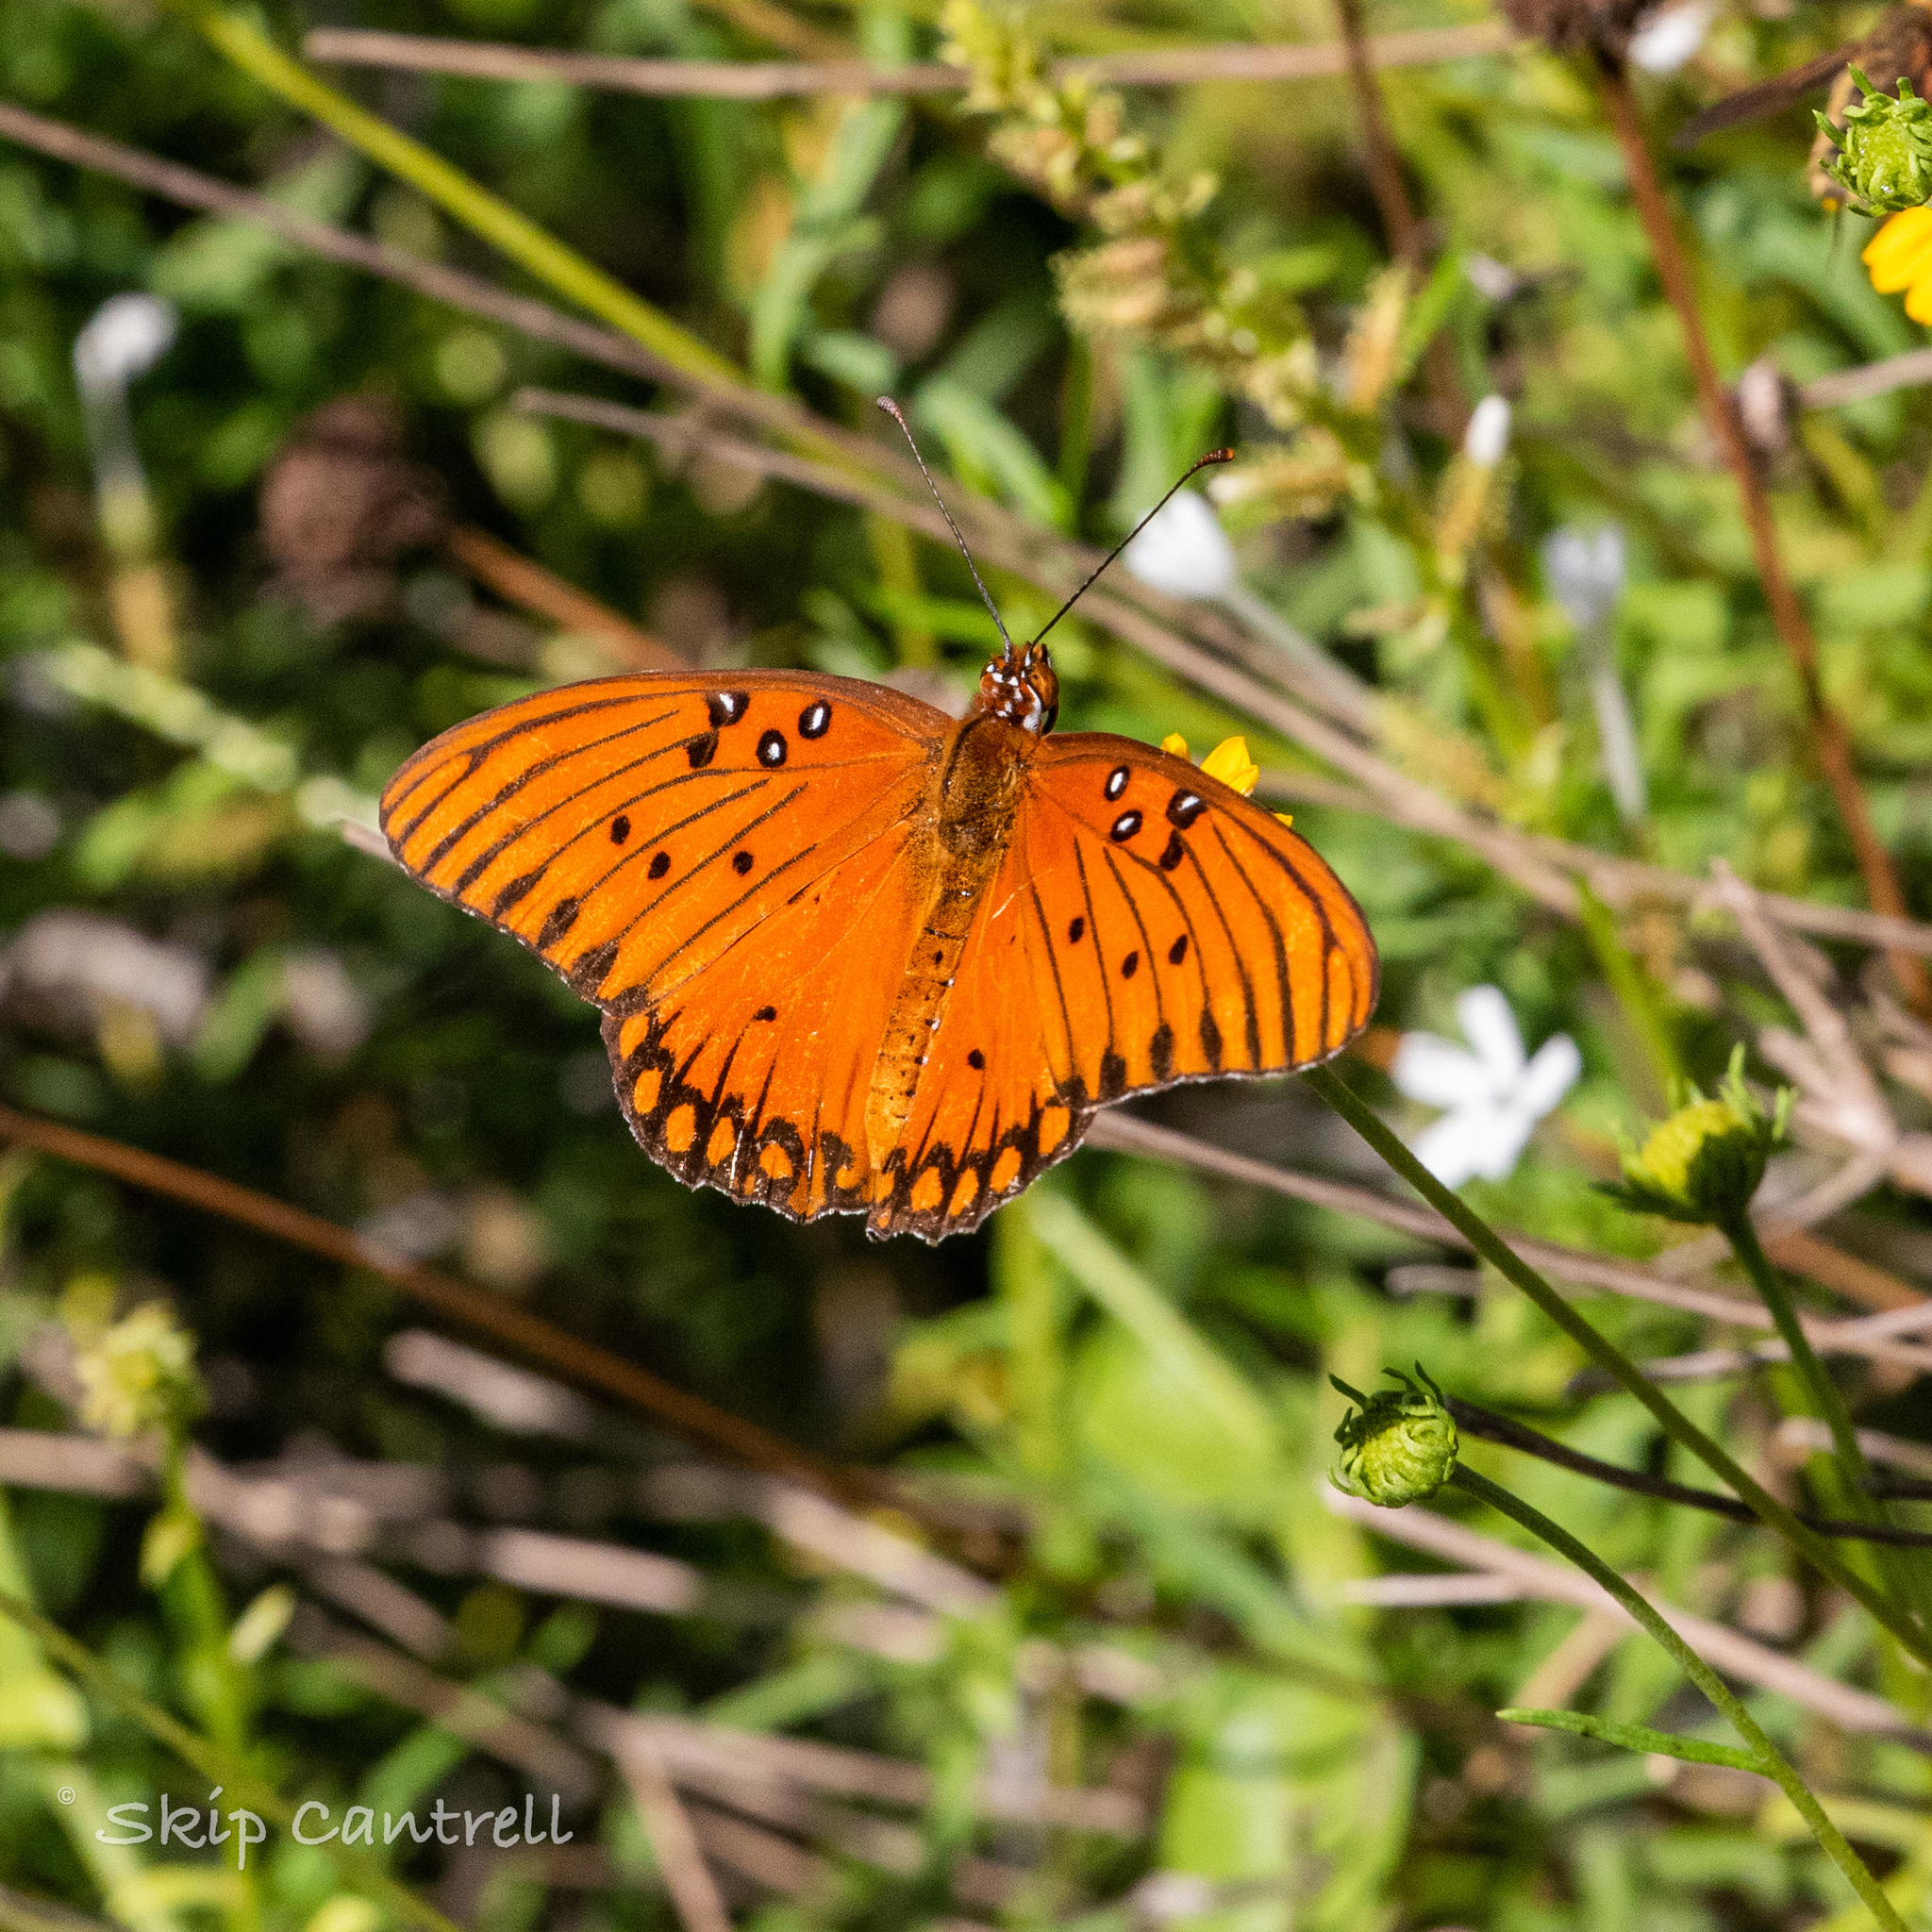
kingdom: Animalia
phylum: Arthropoda
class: Insecta
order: Lepidoptera
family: Nymphalidae
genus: Dione
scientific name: Dione vanillae
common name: Gulf fritillary
